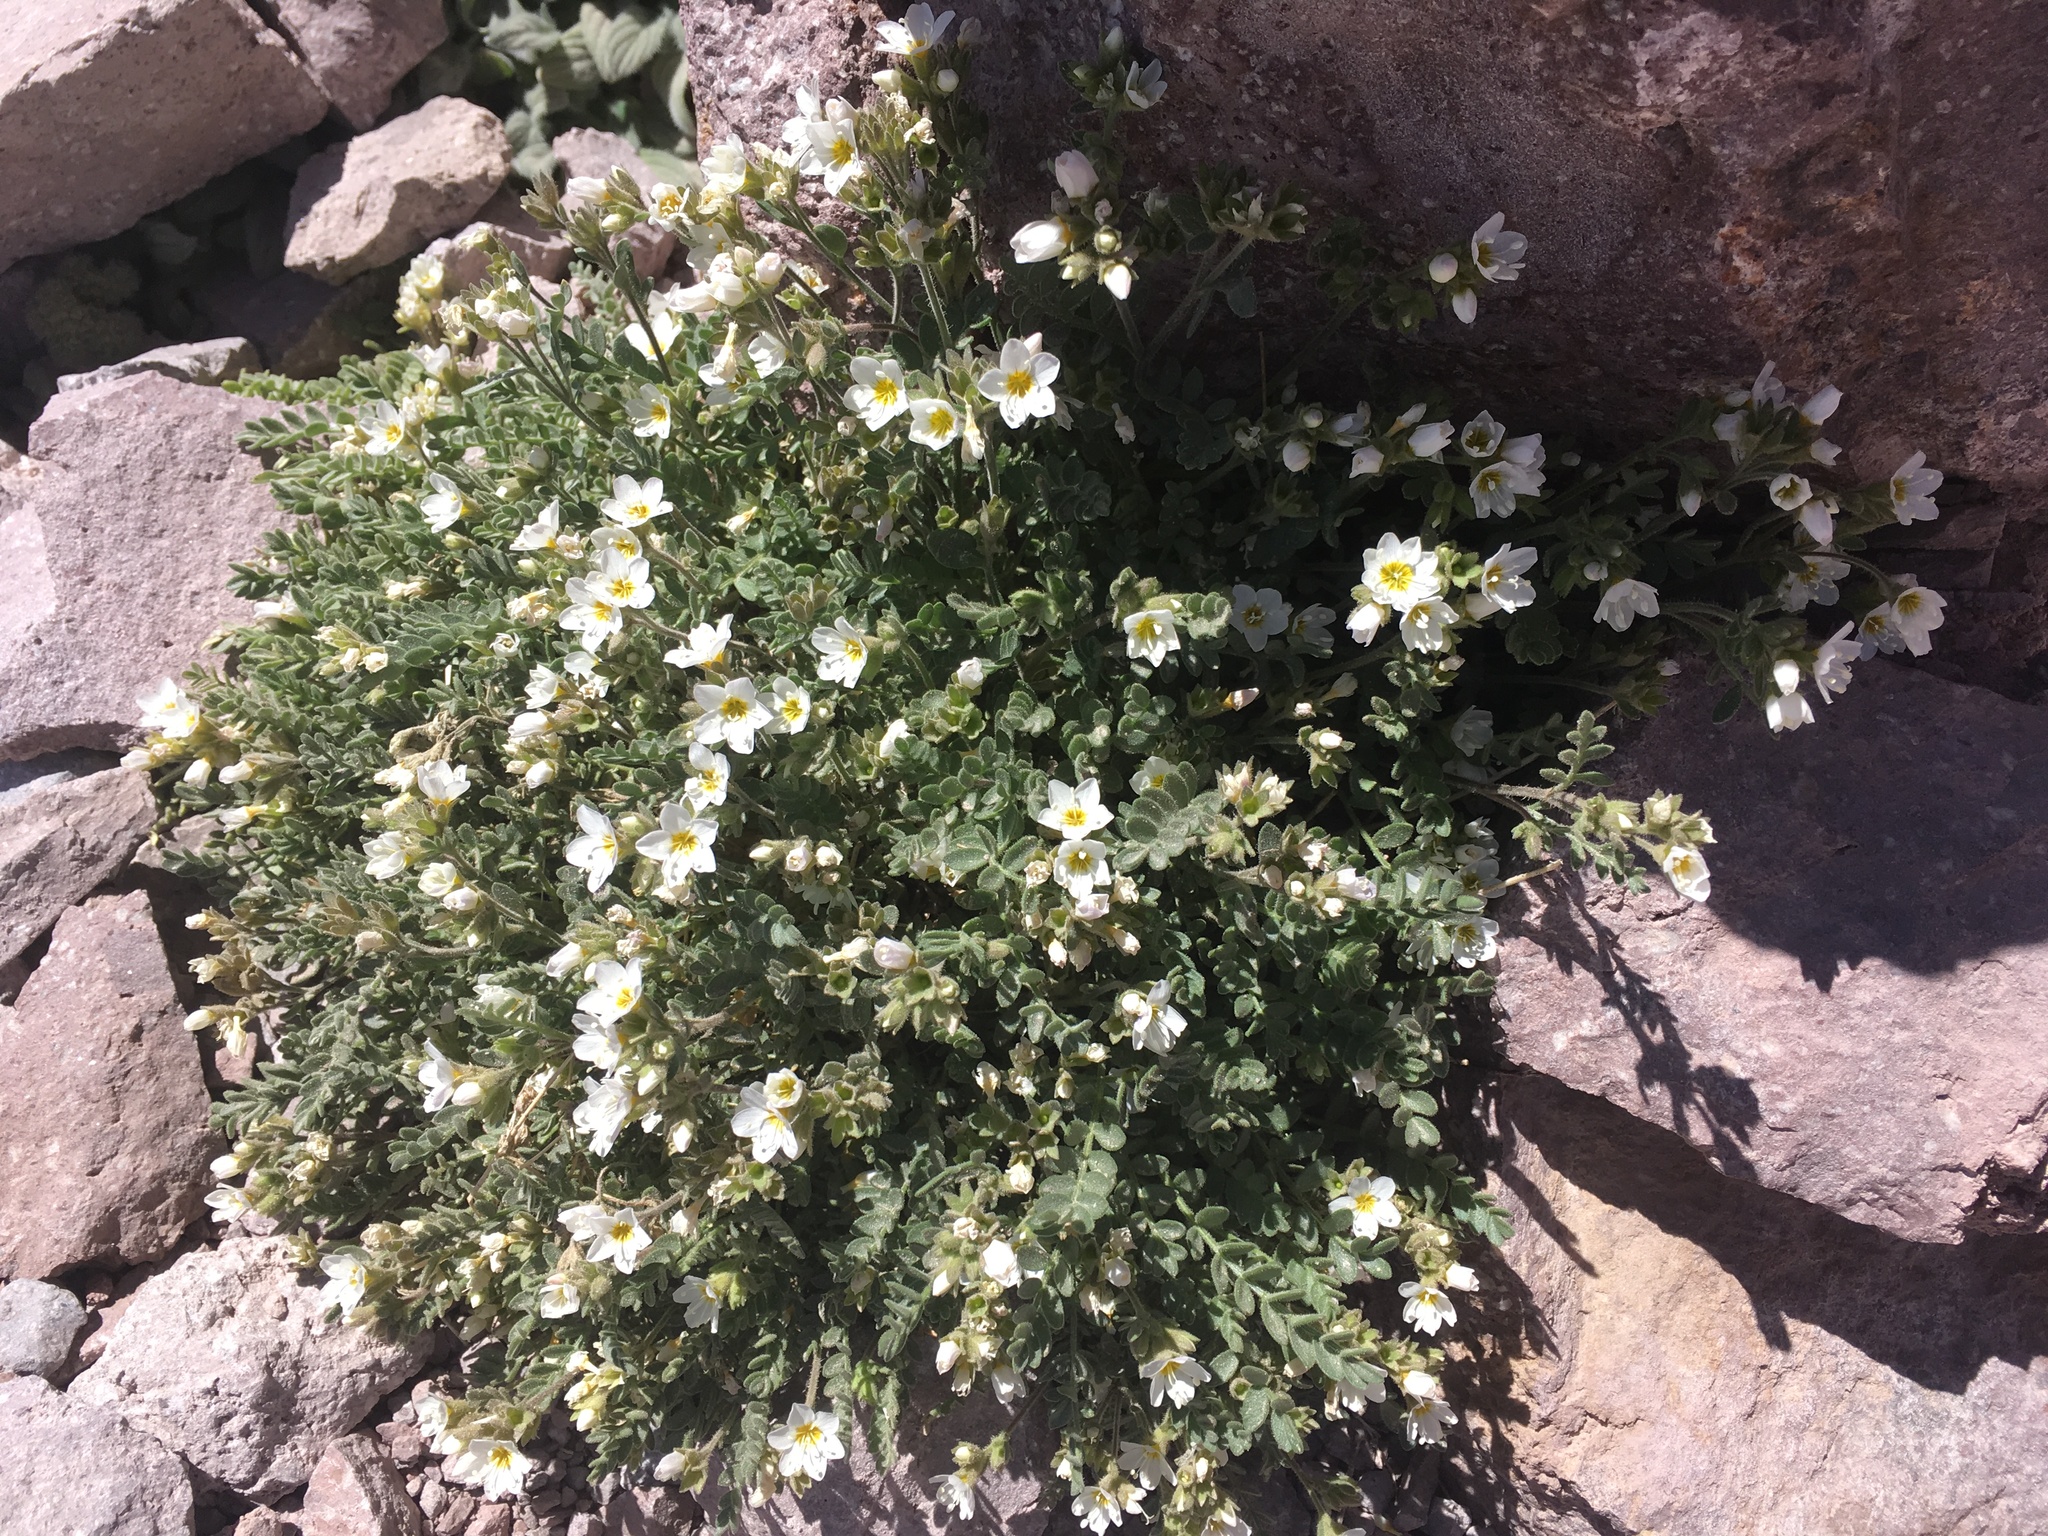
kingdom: Plantae
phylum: Tracheophyta
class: Magnoliopsida
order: Ericales
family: Polemoniaceae
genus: Polemonium
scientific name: Polemonium pulcherrimum
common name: Short jacob's-ladder
